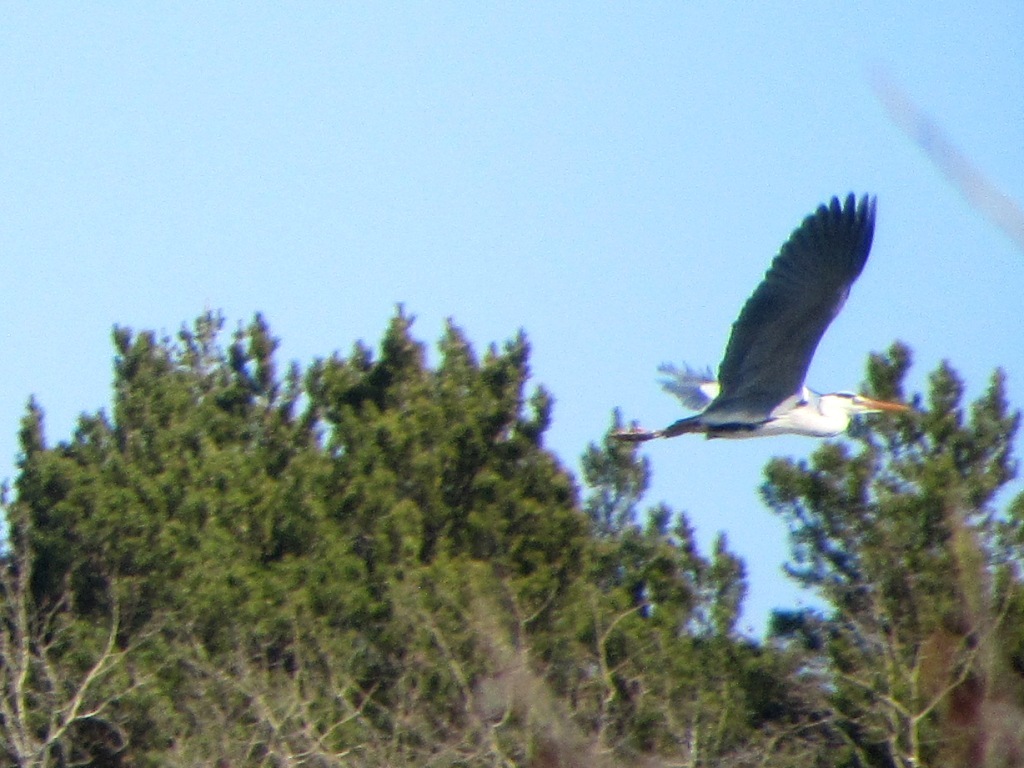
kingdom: Animalia
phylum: Chordata
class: Aves
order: Pelecaniformes
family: Ardeidae
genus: Ardea
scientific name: Ardea cinerea
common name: Grey heron
